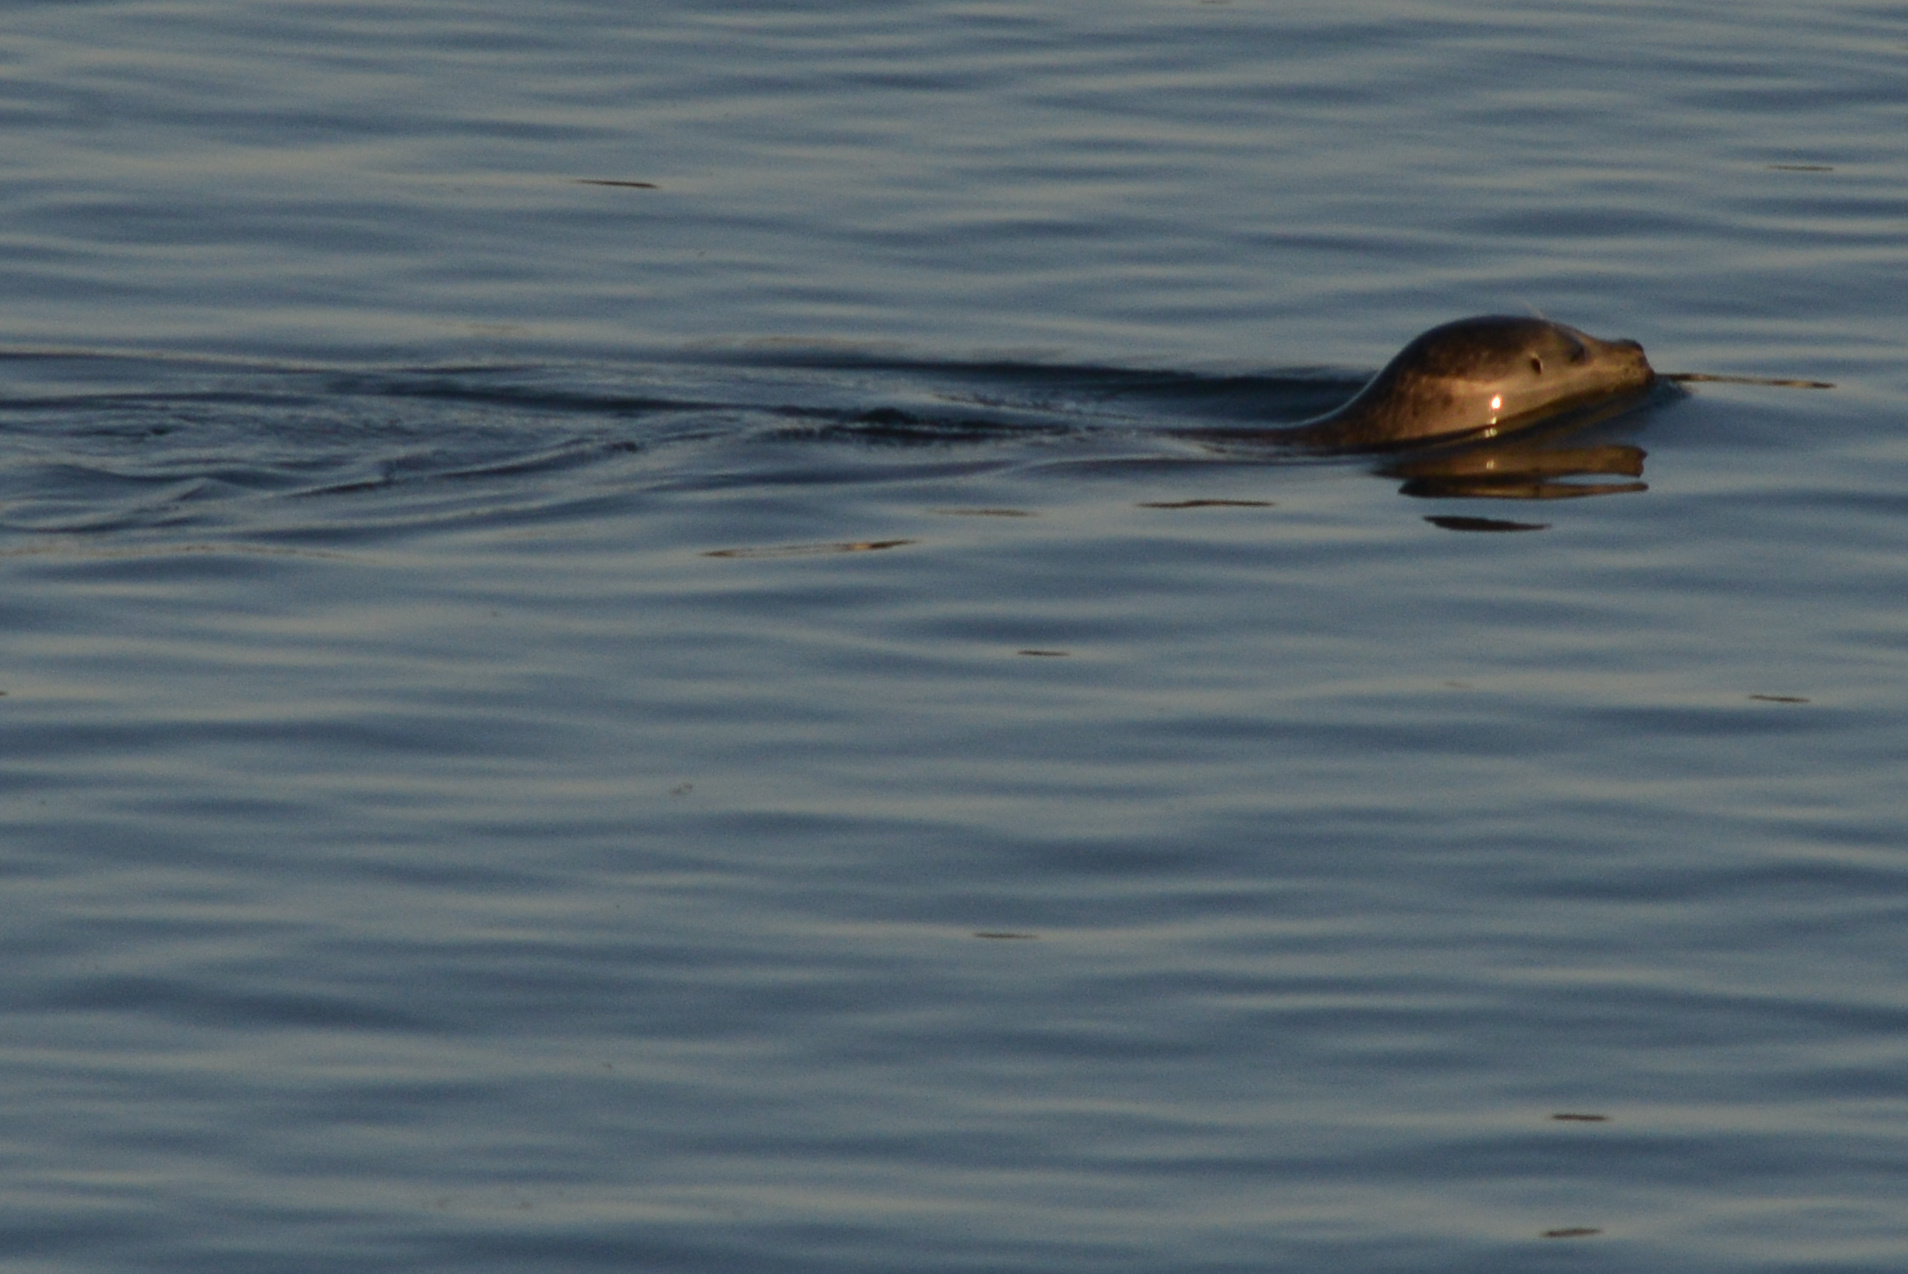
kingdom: Animalia
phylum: Chordata
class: Mammalia
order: Carnivora
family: Phocidae
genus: Phoca
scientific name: Phoca vitulina
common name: Harbor seal
